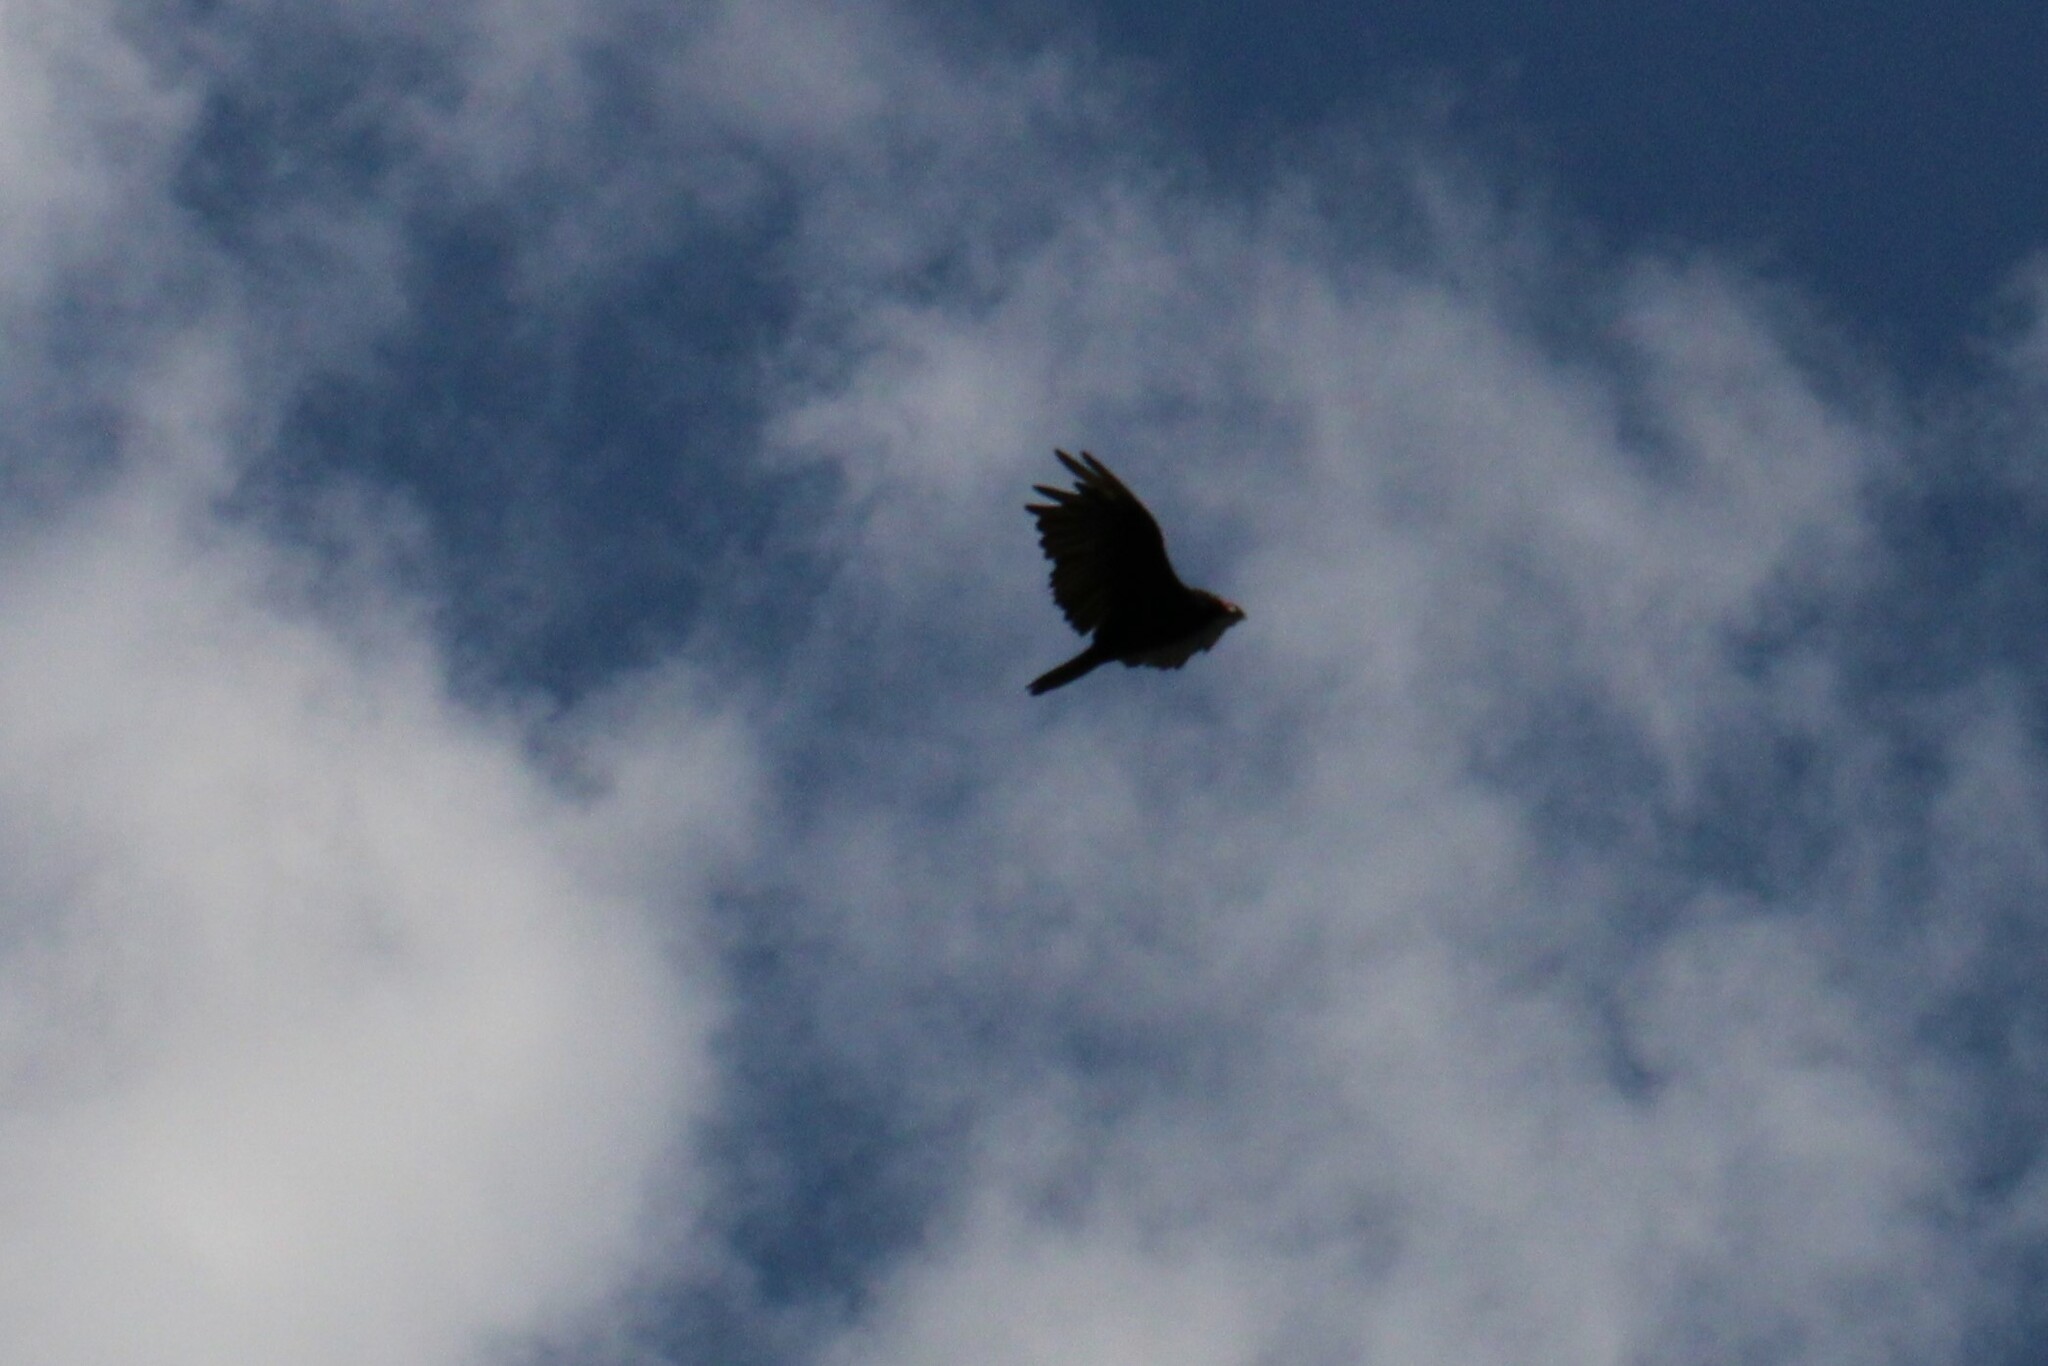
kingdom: Animalia
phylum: Chordata
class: Aves
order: Accipitriformes
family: Cathartidae
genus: Cathartes
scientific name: Cathartes aura
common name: Turkey vulture
